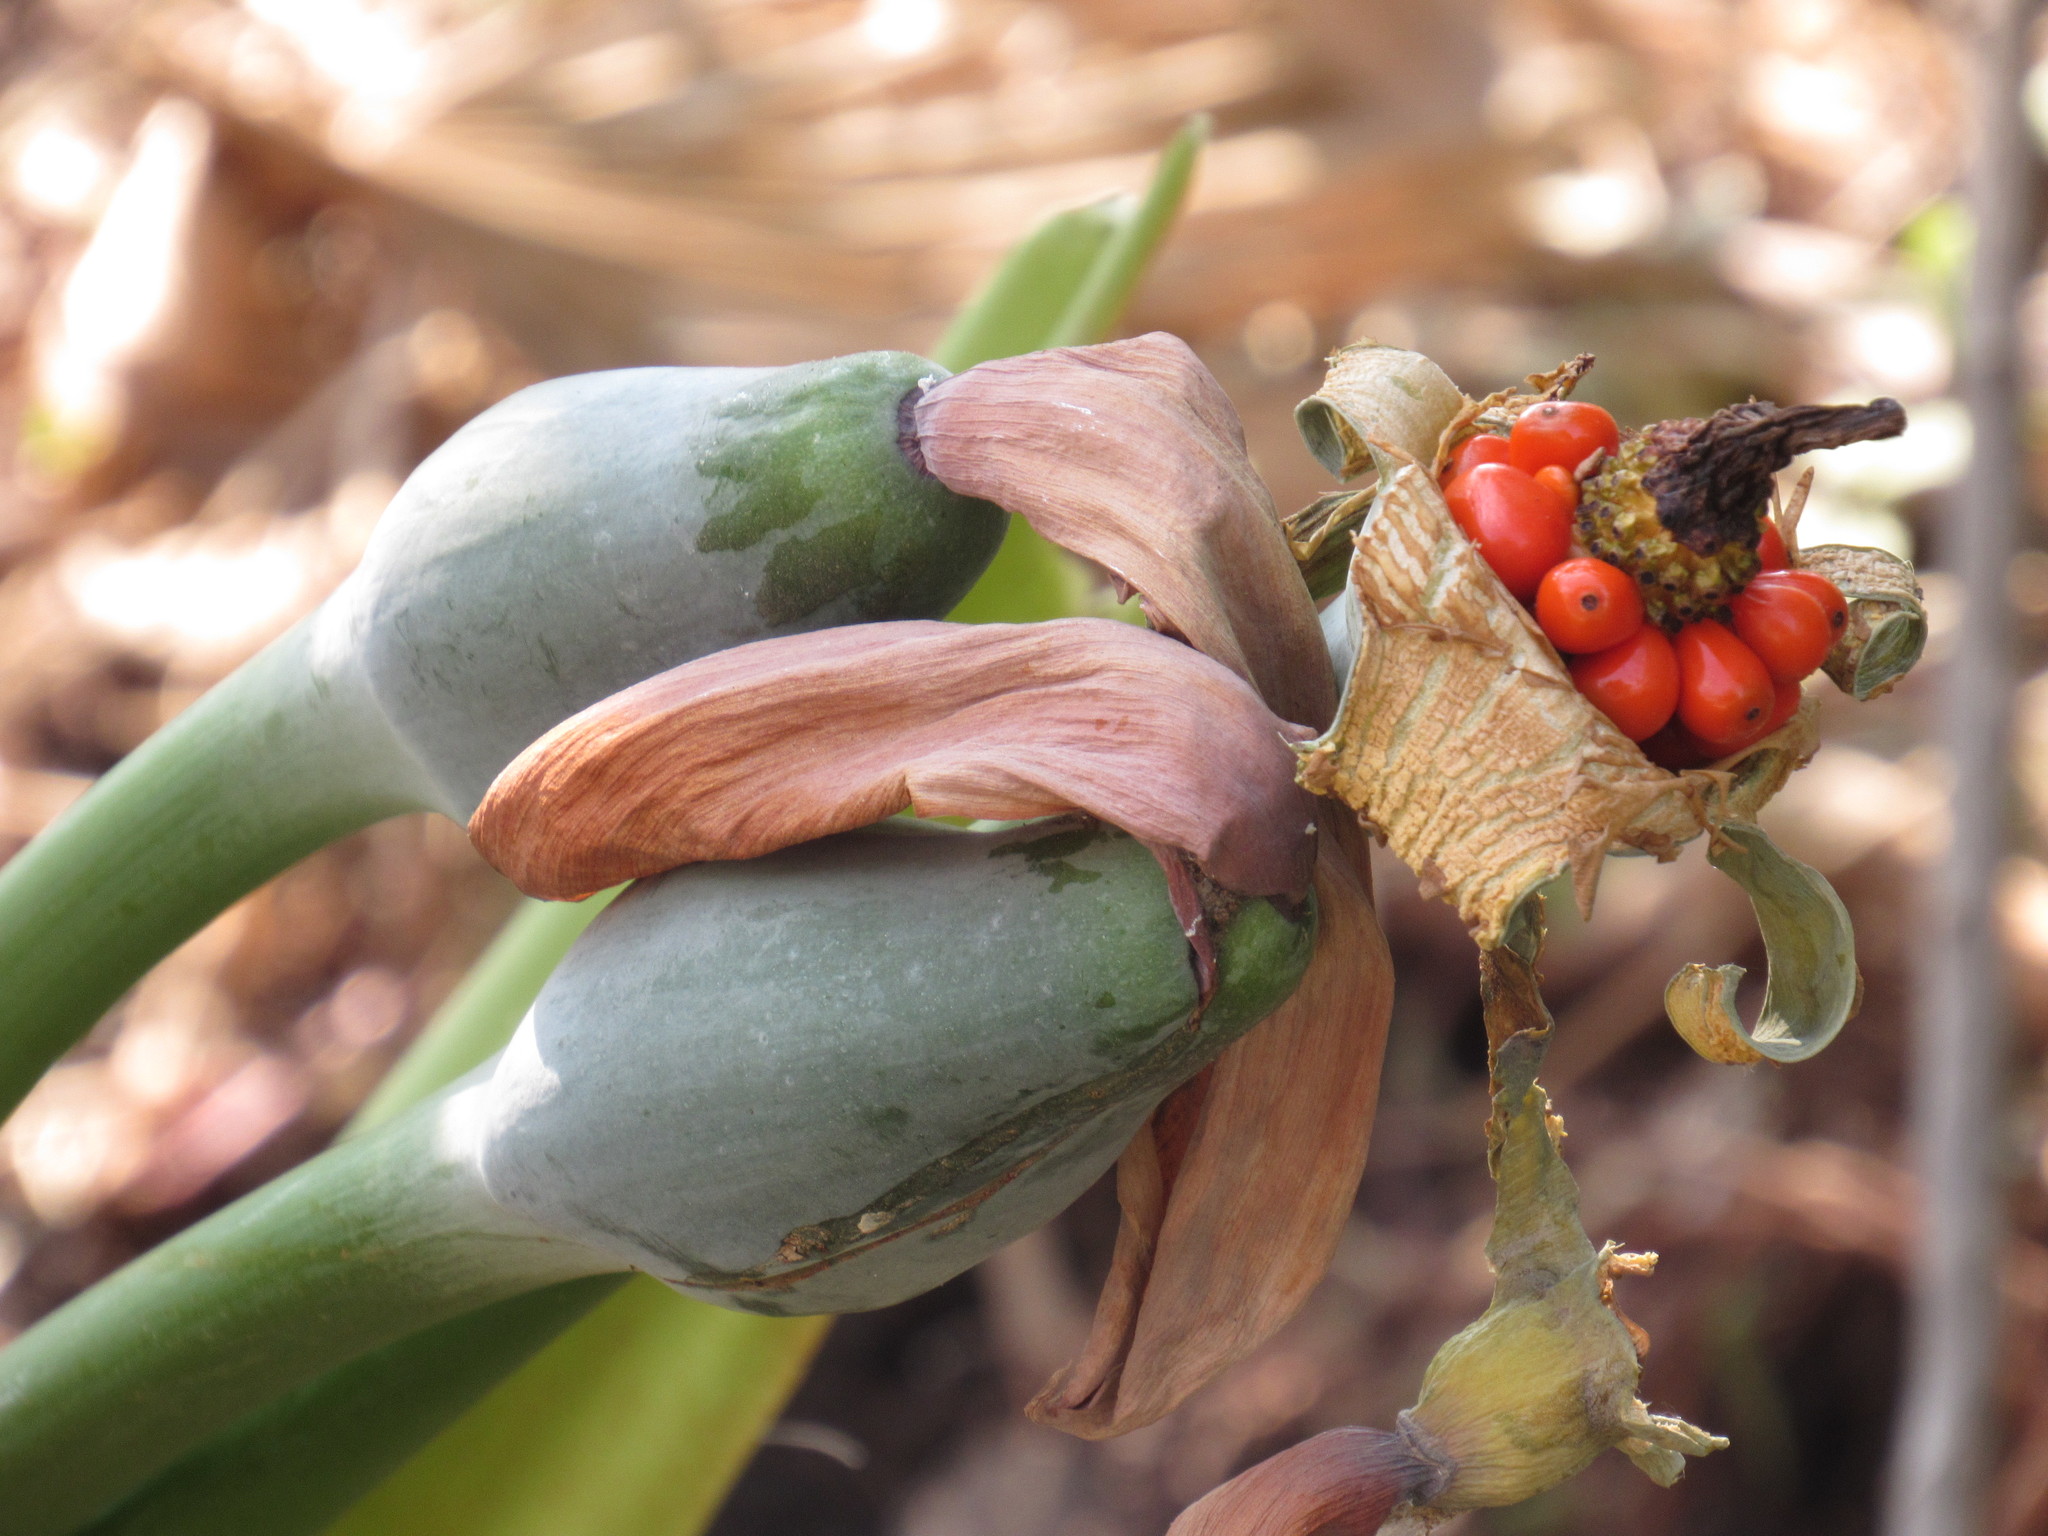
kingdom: Plantae
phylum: Tracheophyta
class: Liliopsida
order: Alismatales
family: Araceae
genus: Alocasia
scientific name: Alocasia odora
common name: Asian taro
